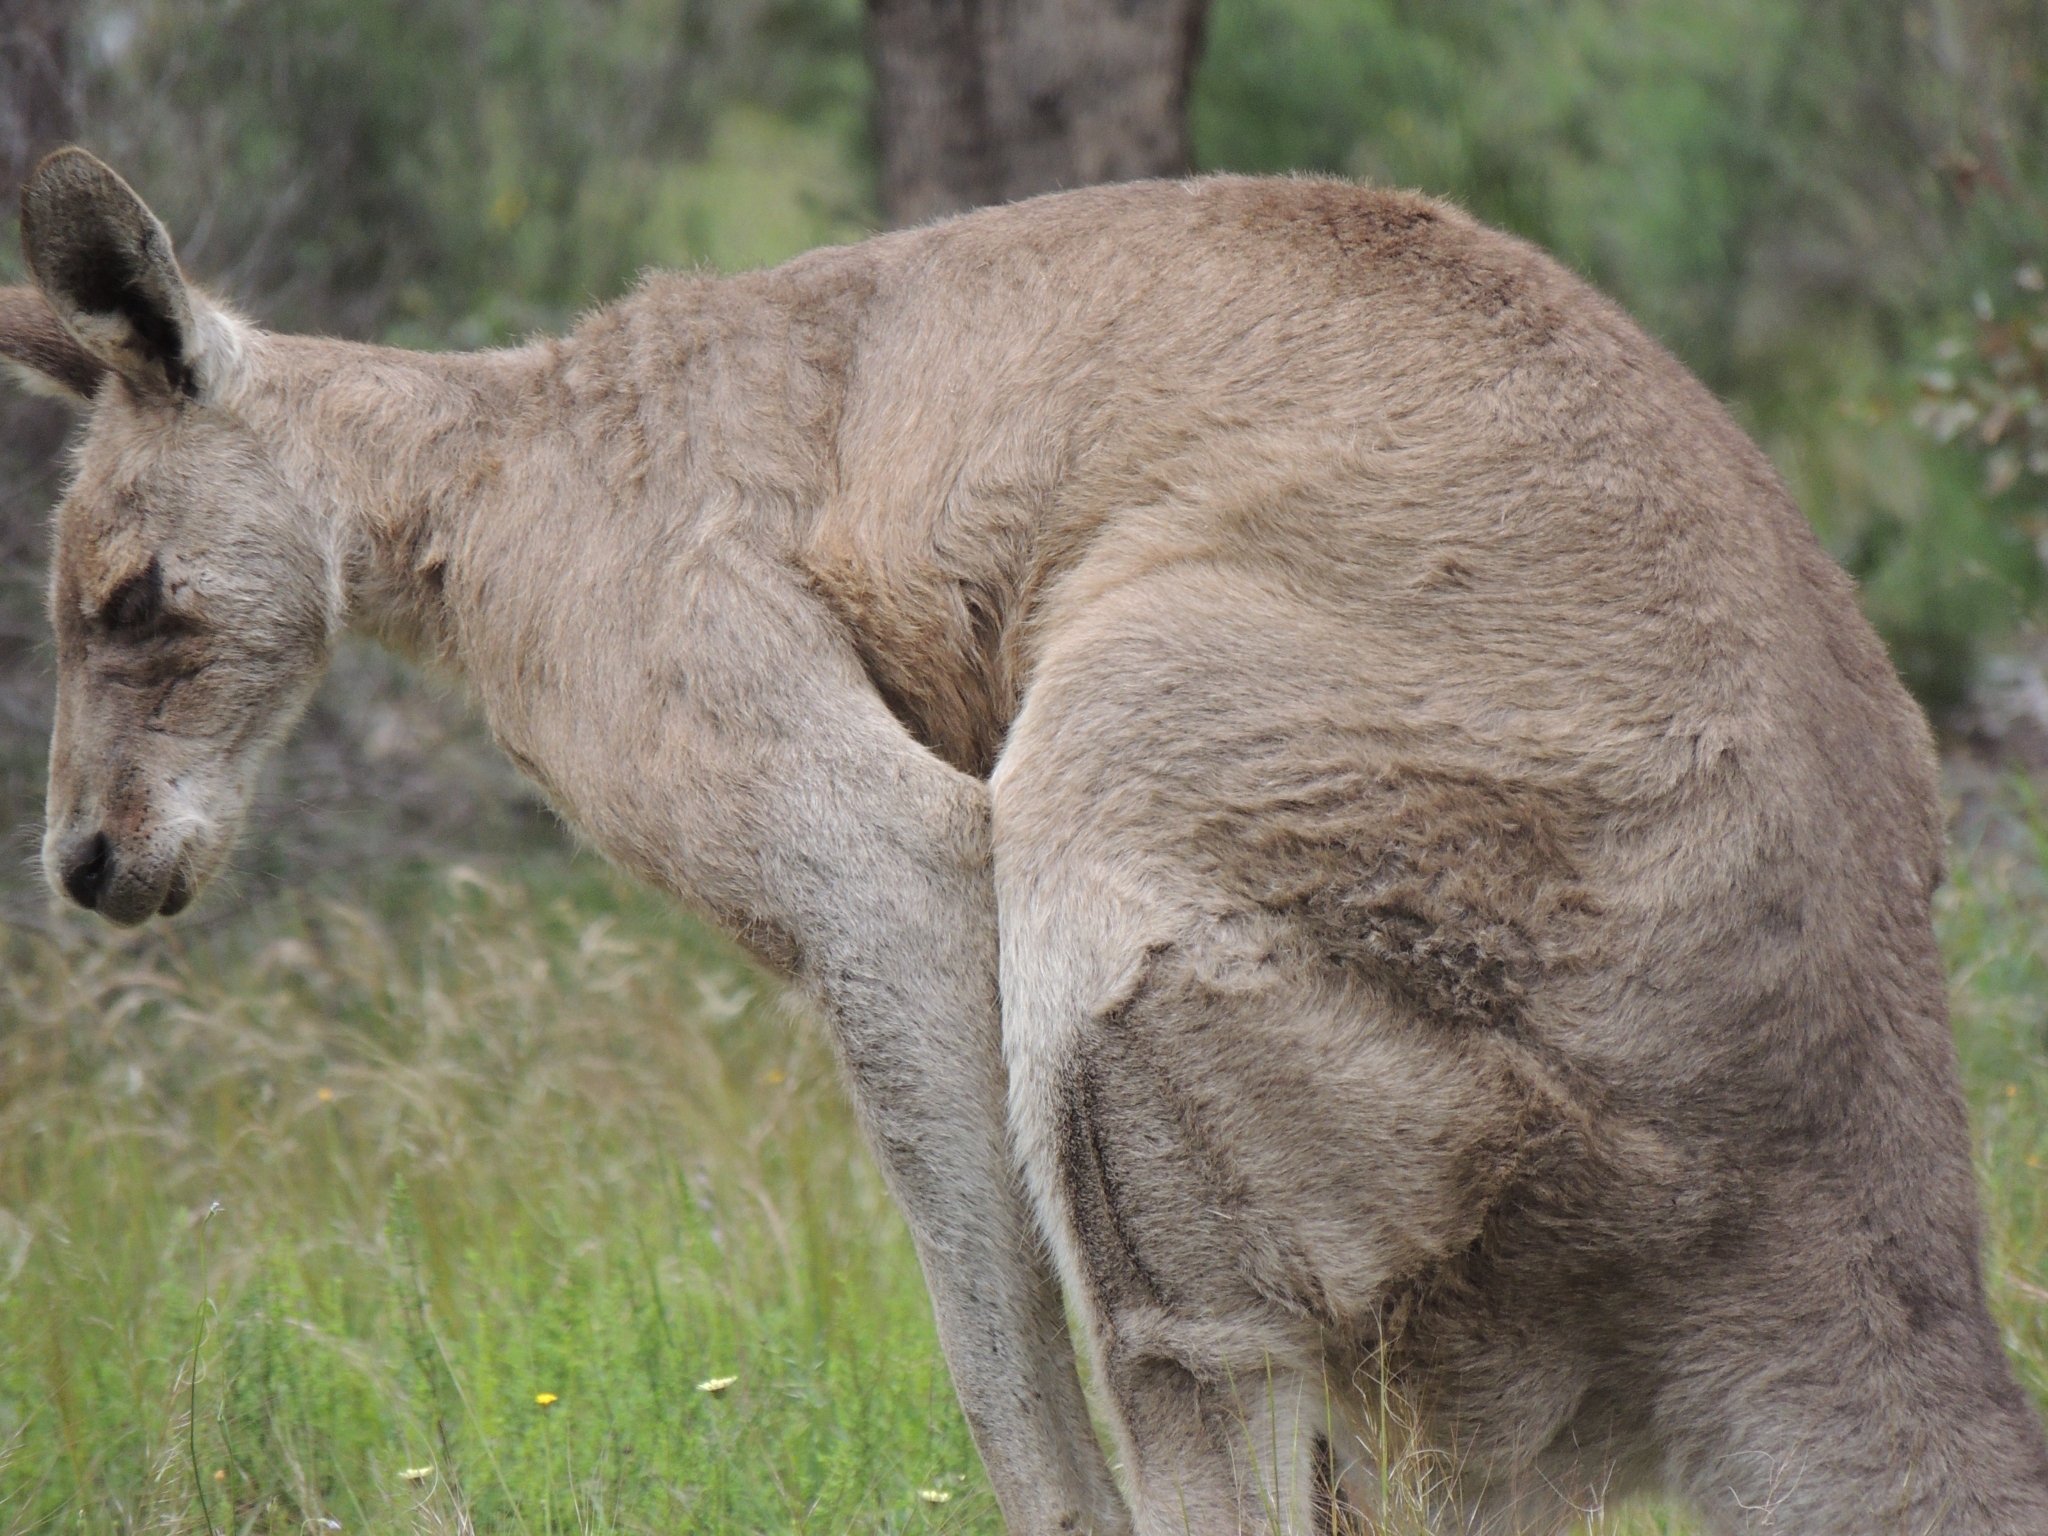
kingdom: Animalia
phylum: Chordata
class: Mammalia
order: Diprotodontia
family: Macropodidae
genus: Macropus
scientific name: Macropus giganteus
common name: Eastern grey kangaroo
